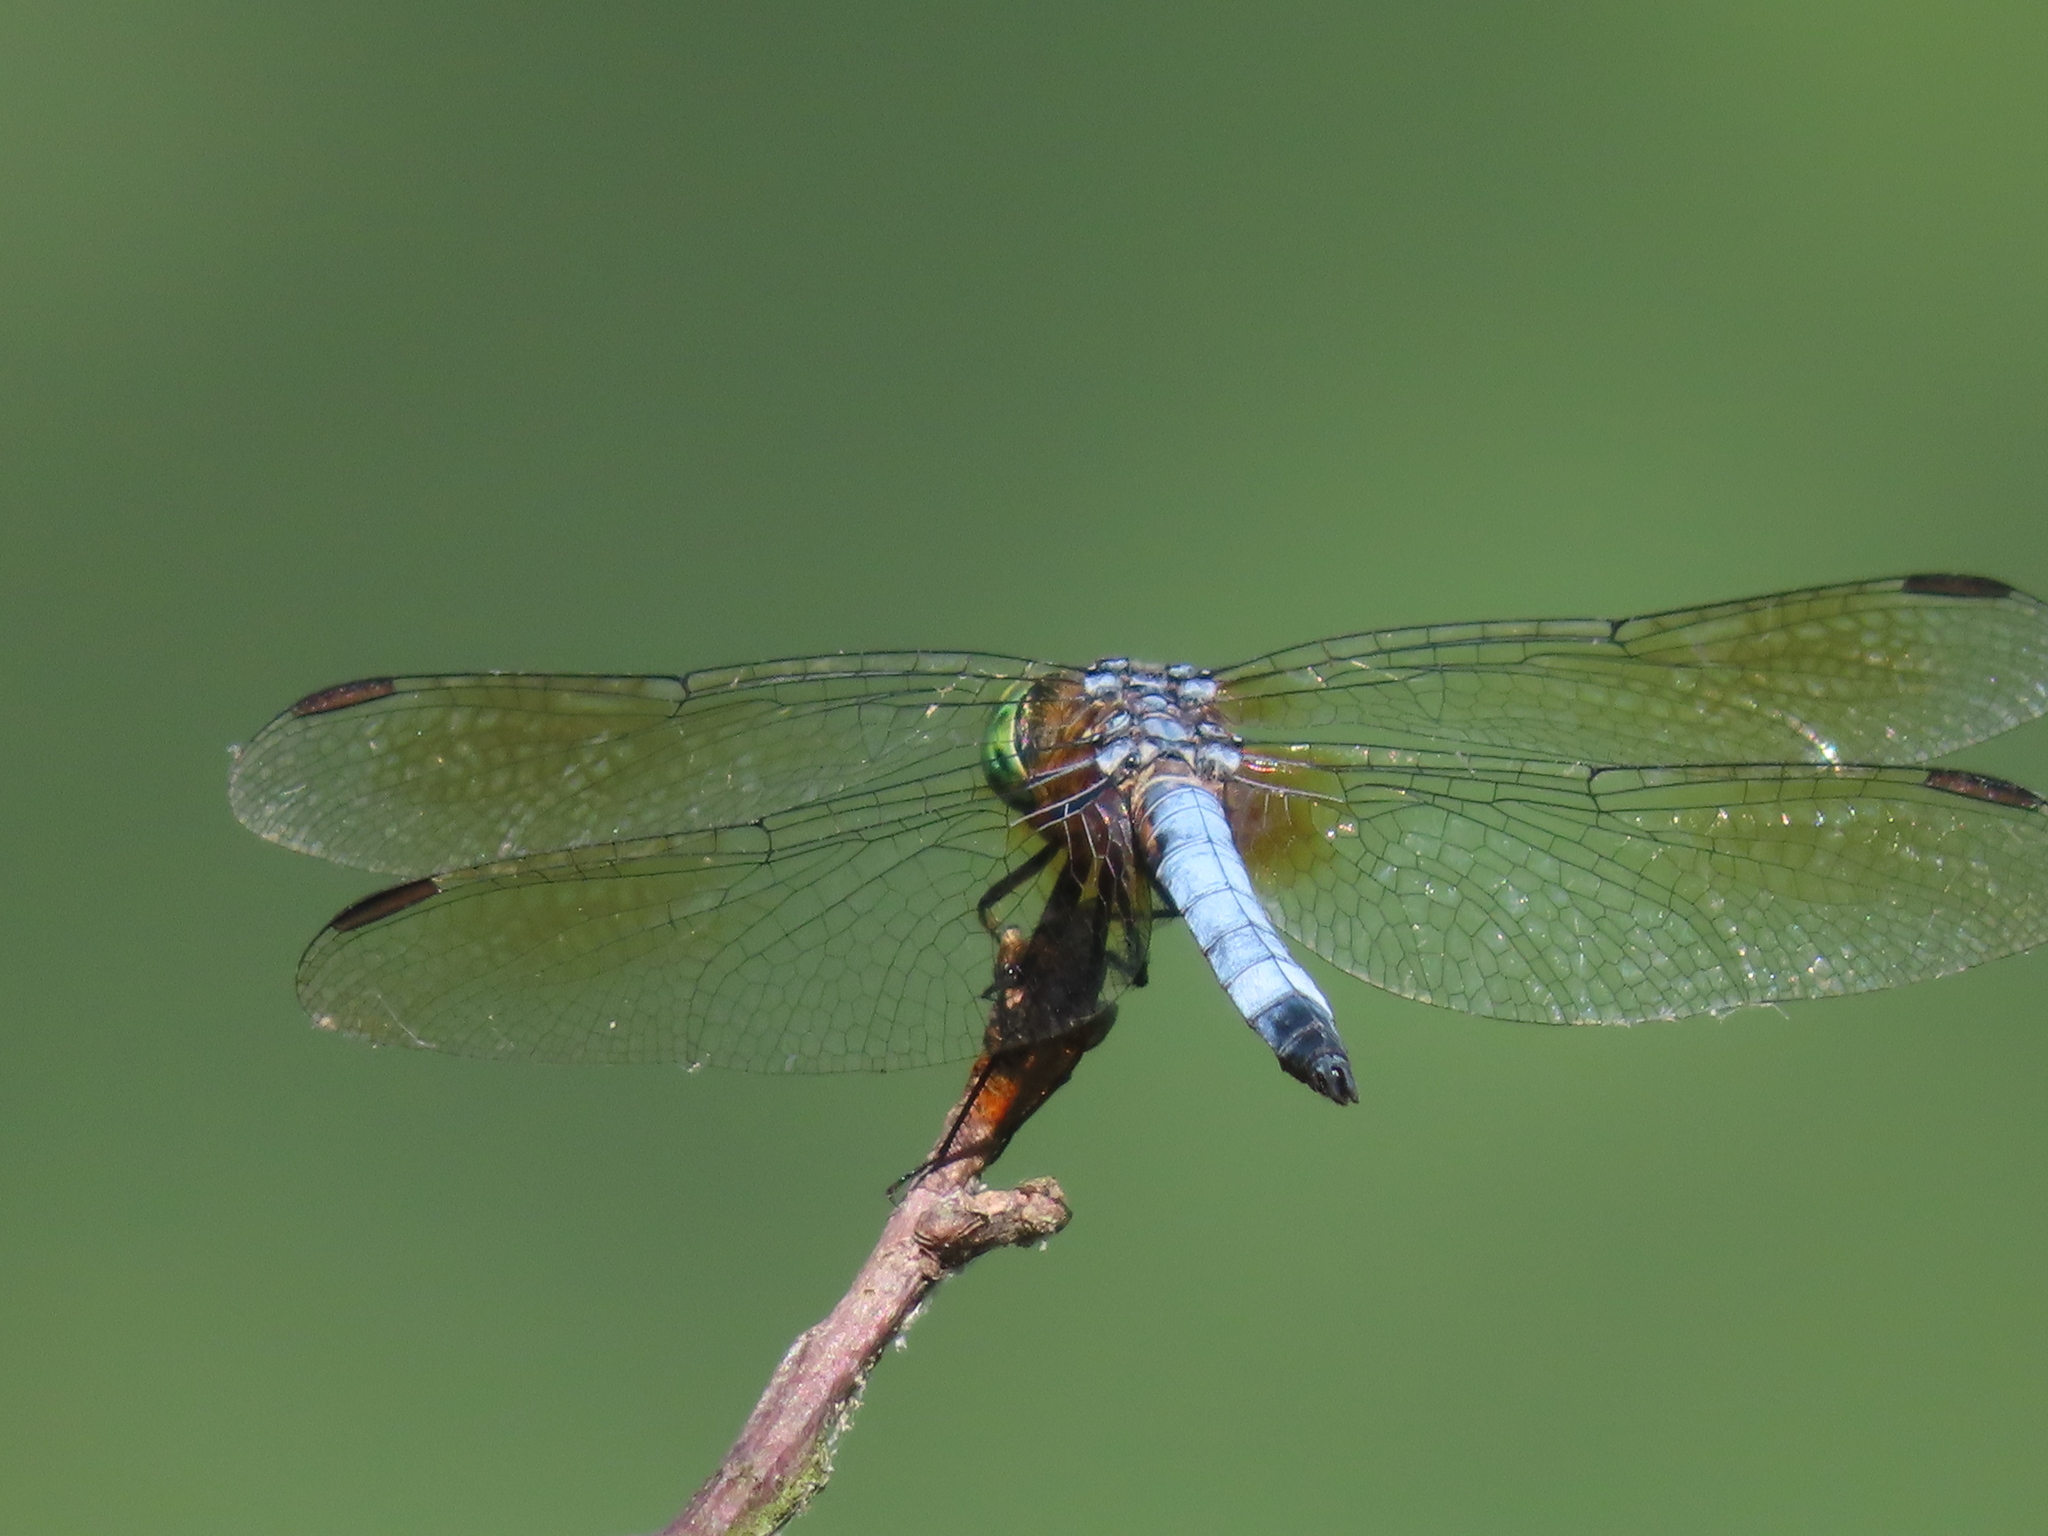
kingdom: Animalia
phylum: Arthropoda
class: Insecta
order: Odonata
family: Libellulidae
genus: Pachydiplax
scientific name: Pachydiplax longipennis
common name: Blue dasher
